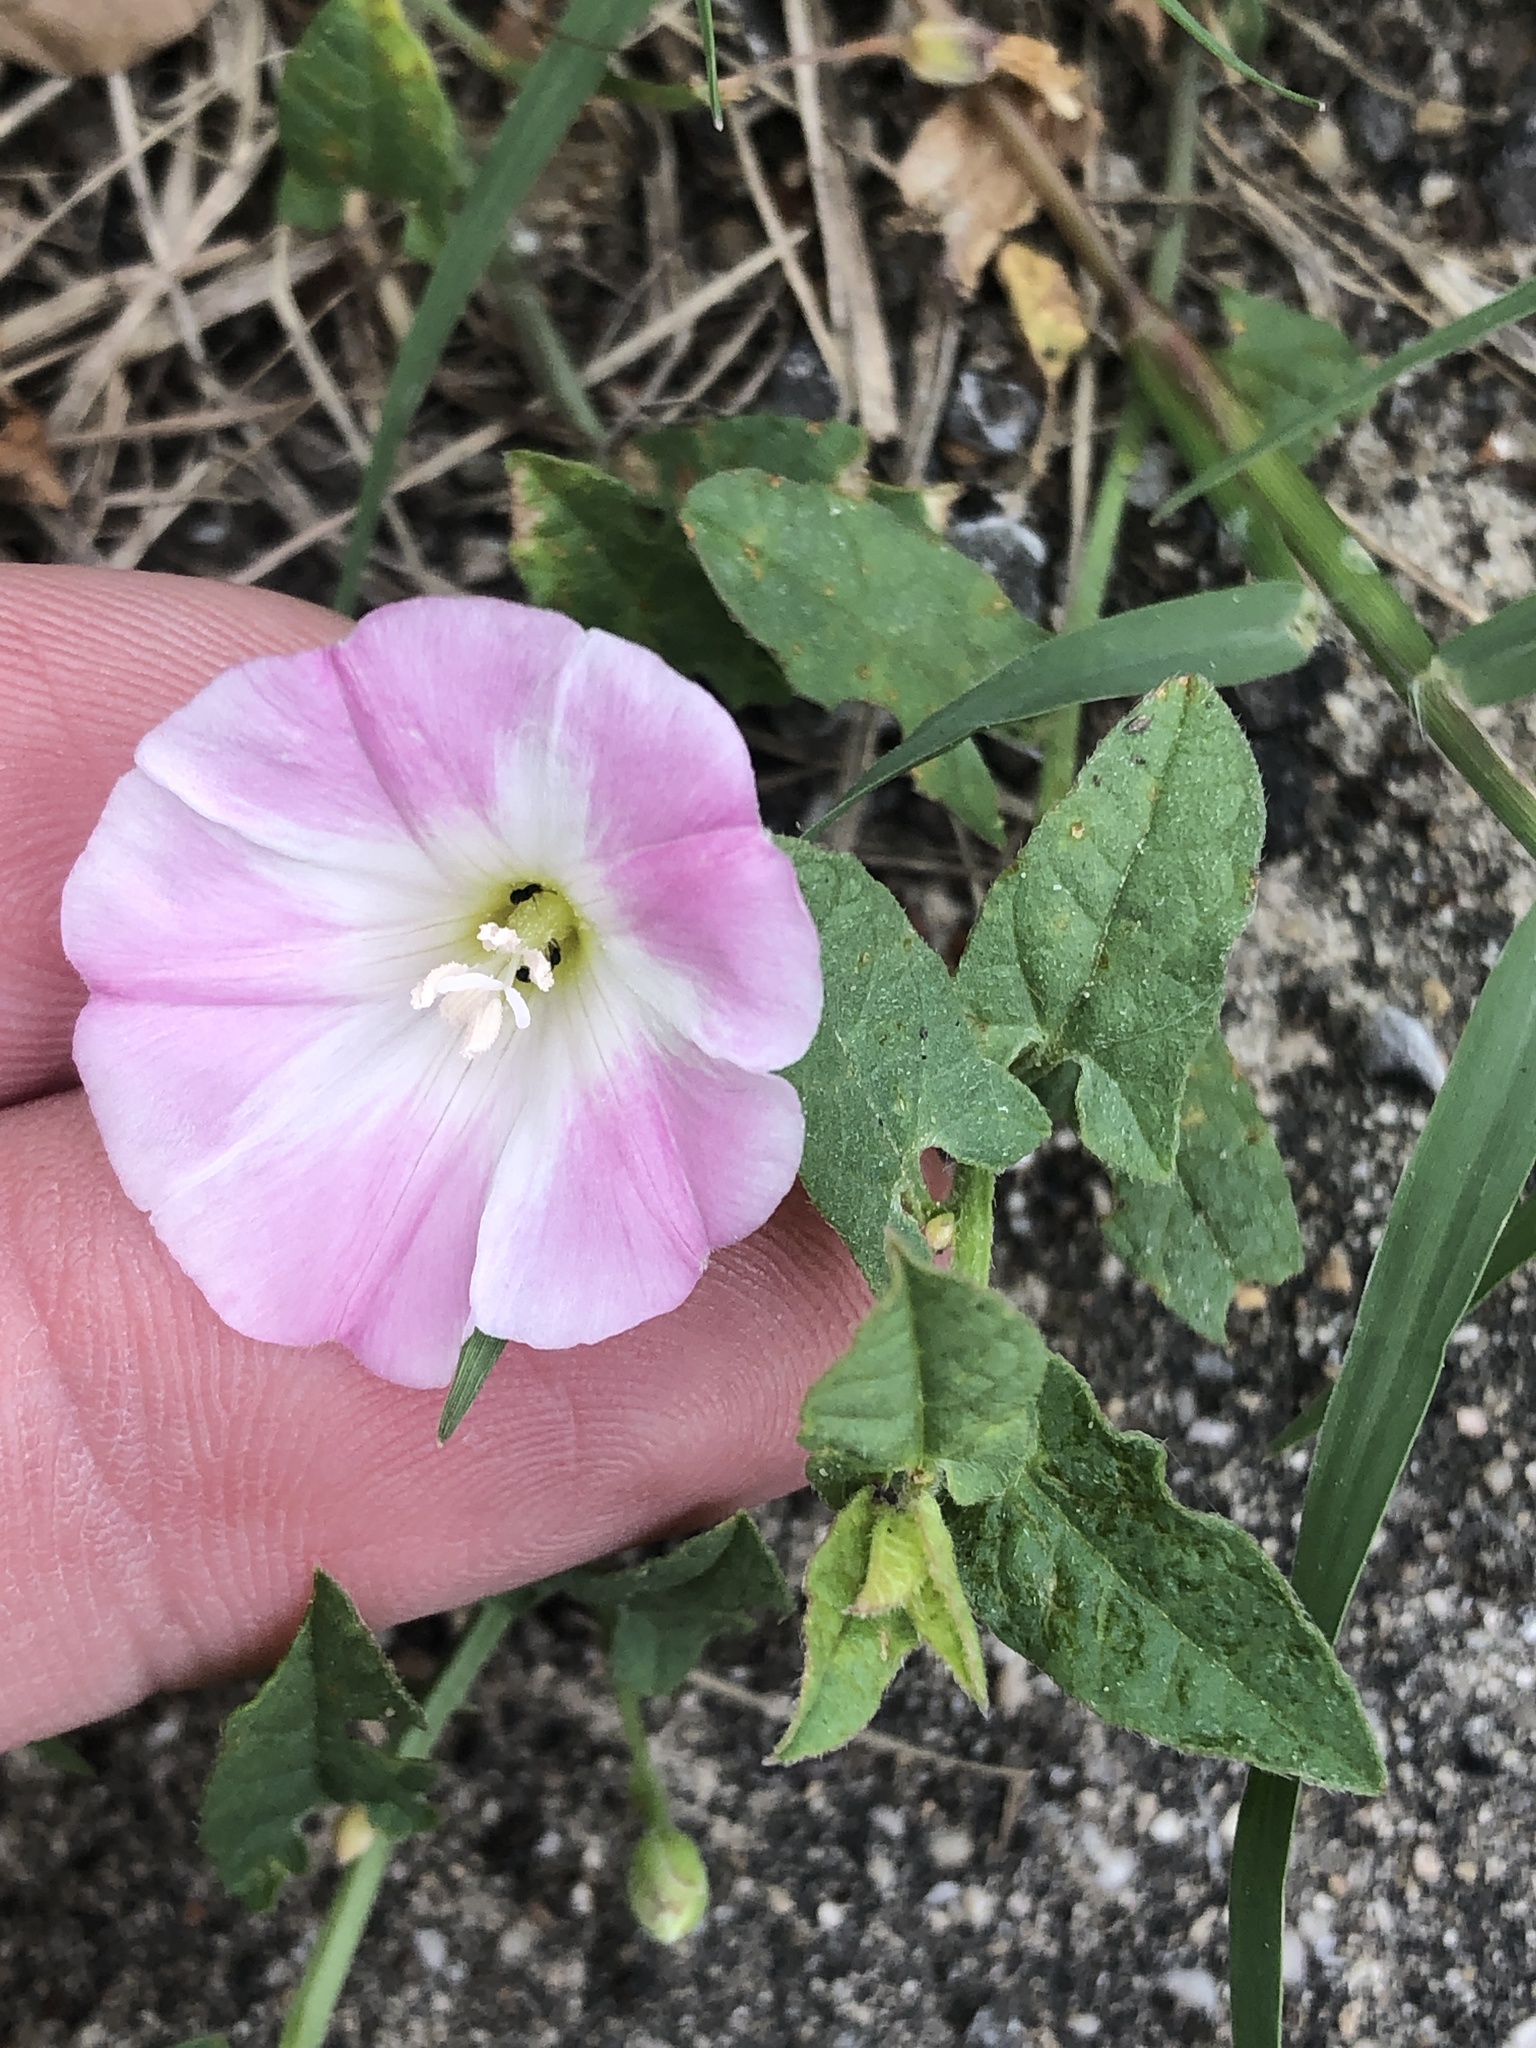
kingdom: Plantae
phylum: Tracheophyta
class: Magnoliopsida
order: Solanales
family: Convolvulaceae
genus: Convolvulus
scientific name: Convolvulus arvensis
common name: Field bindweed
